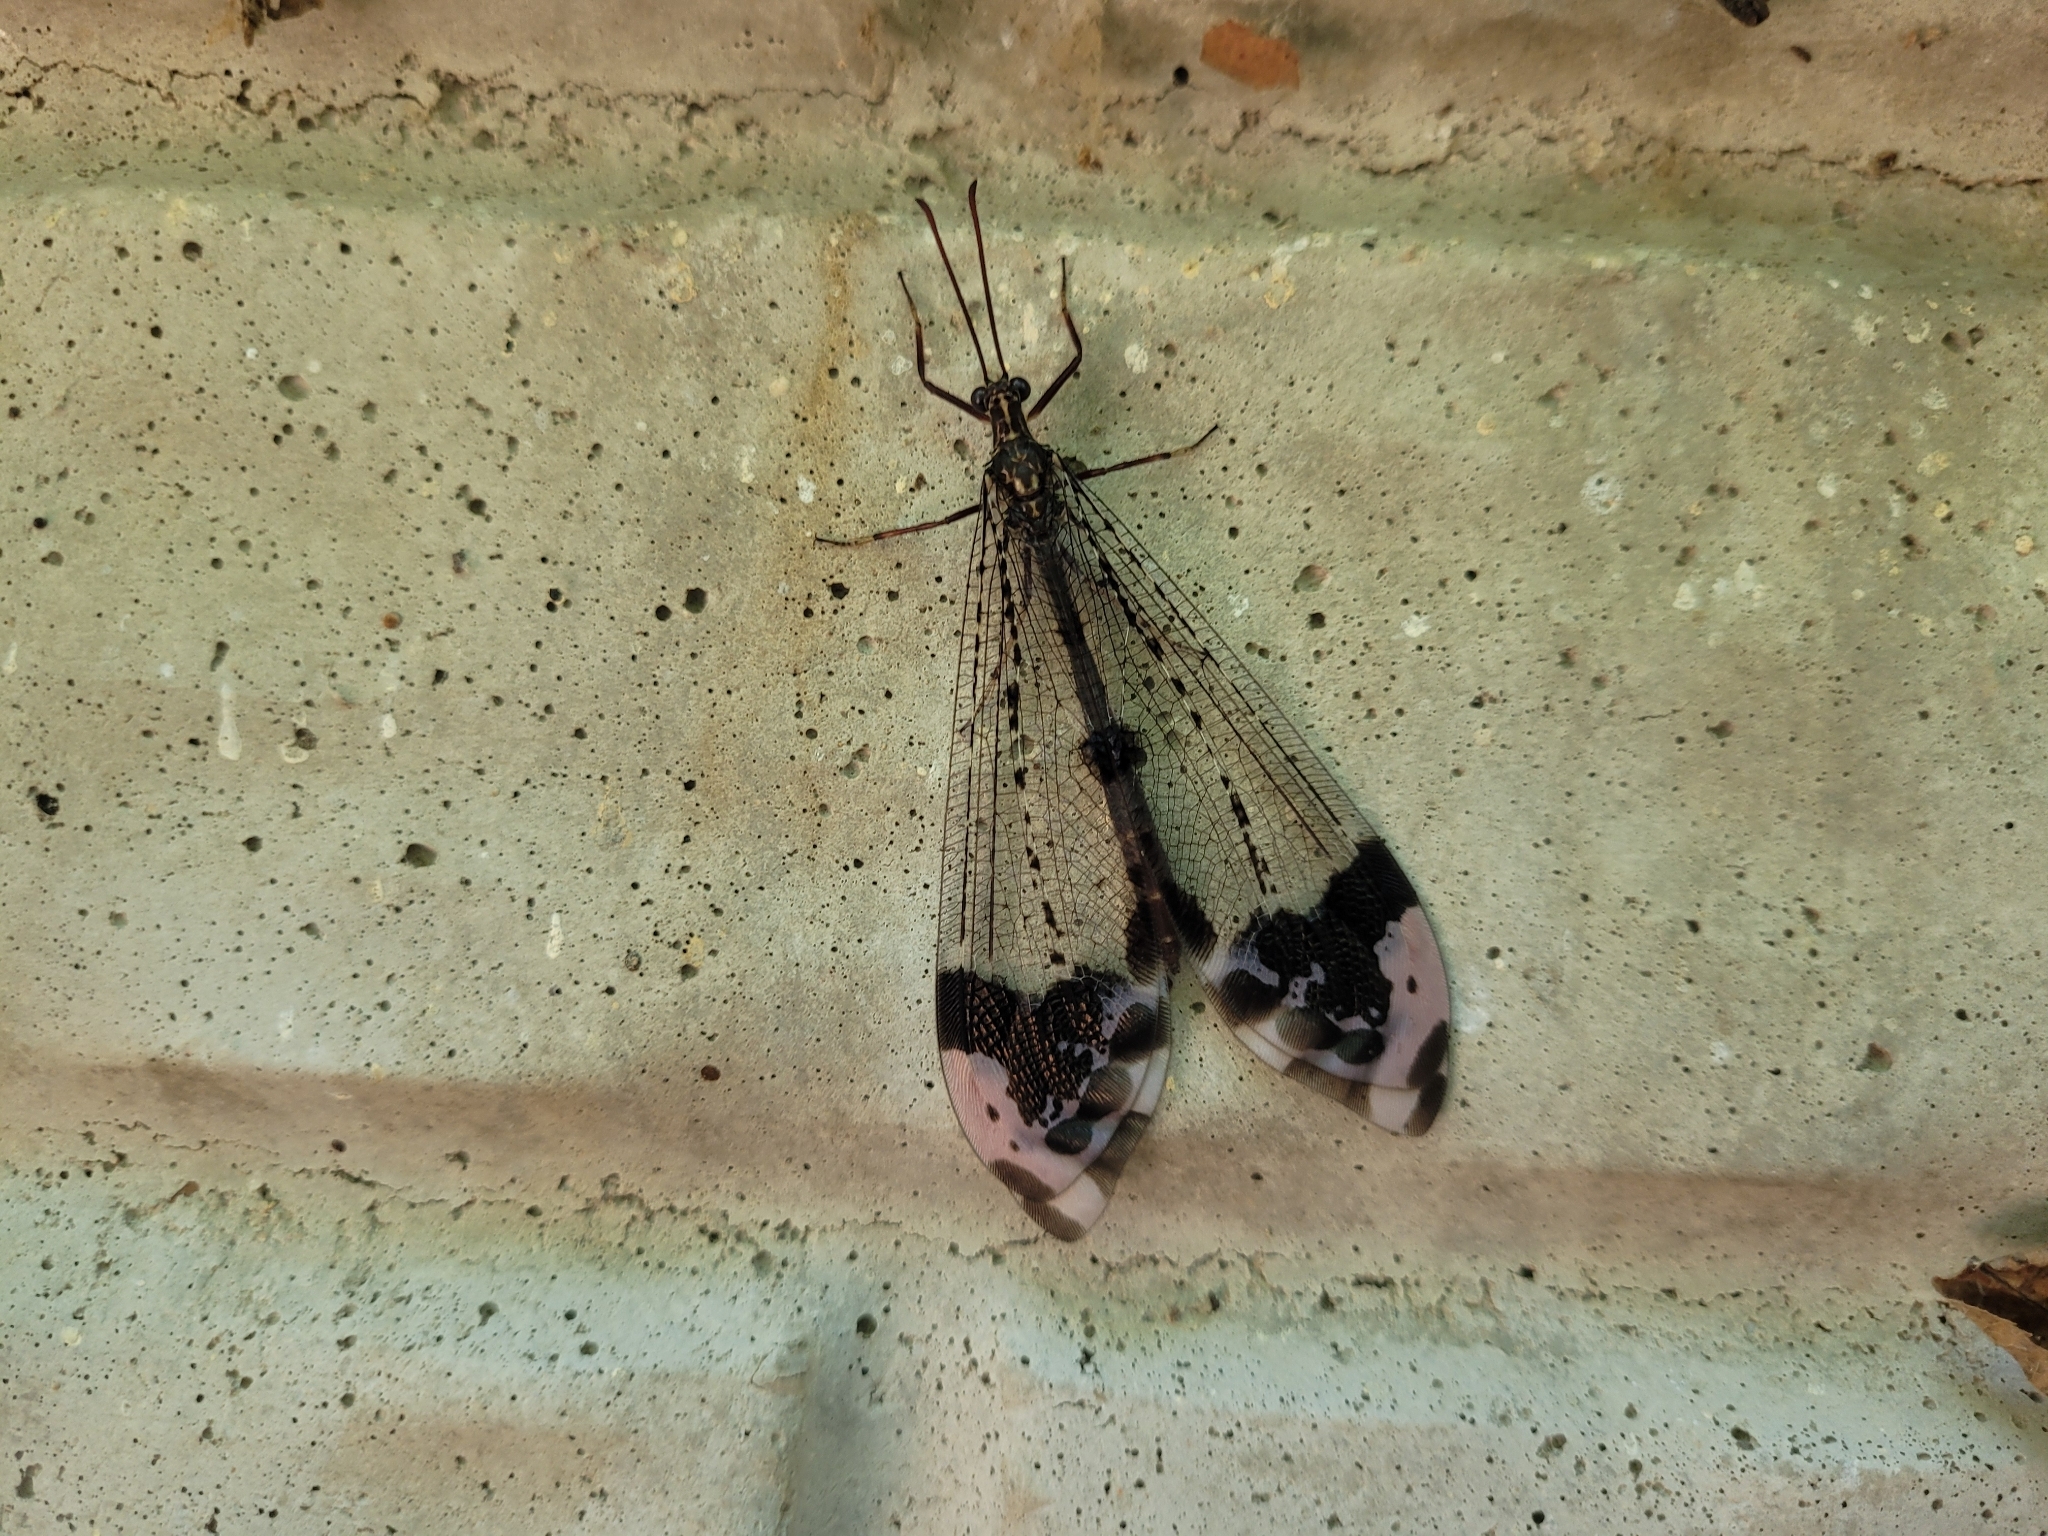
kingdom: Animalia
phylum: Arthropoda
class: Insecta
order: Neuroptera
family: Myrmeleontidae
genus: Glenurus
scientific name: Glenurus gratus
